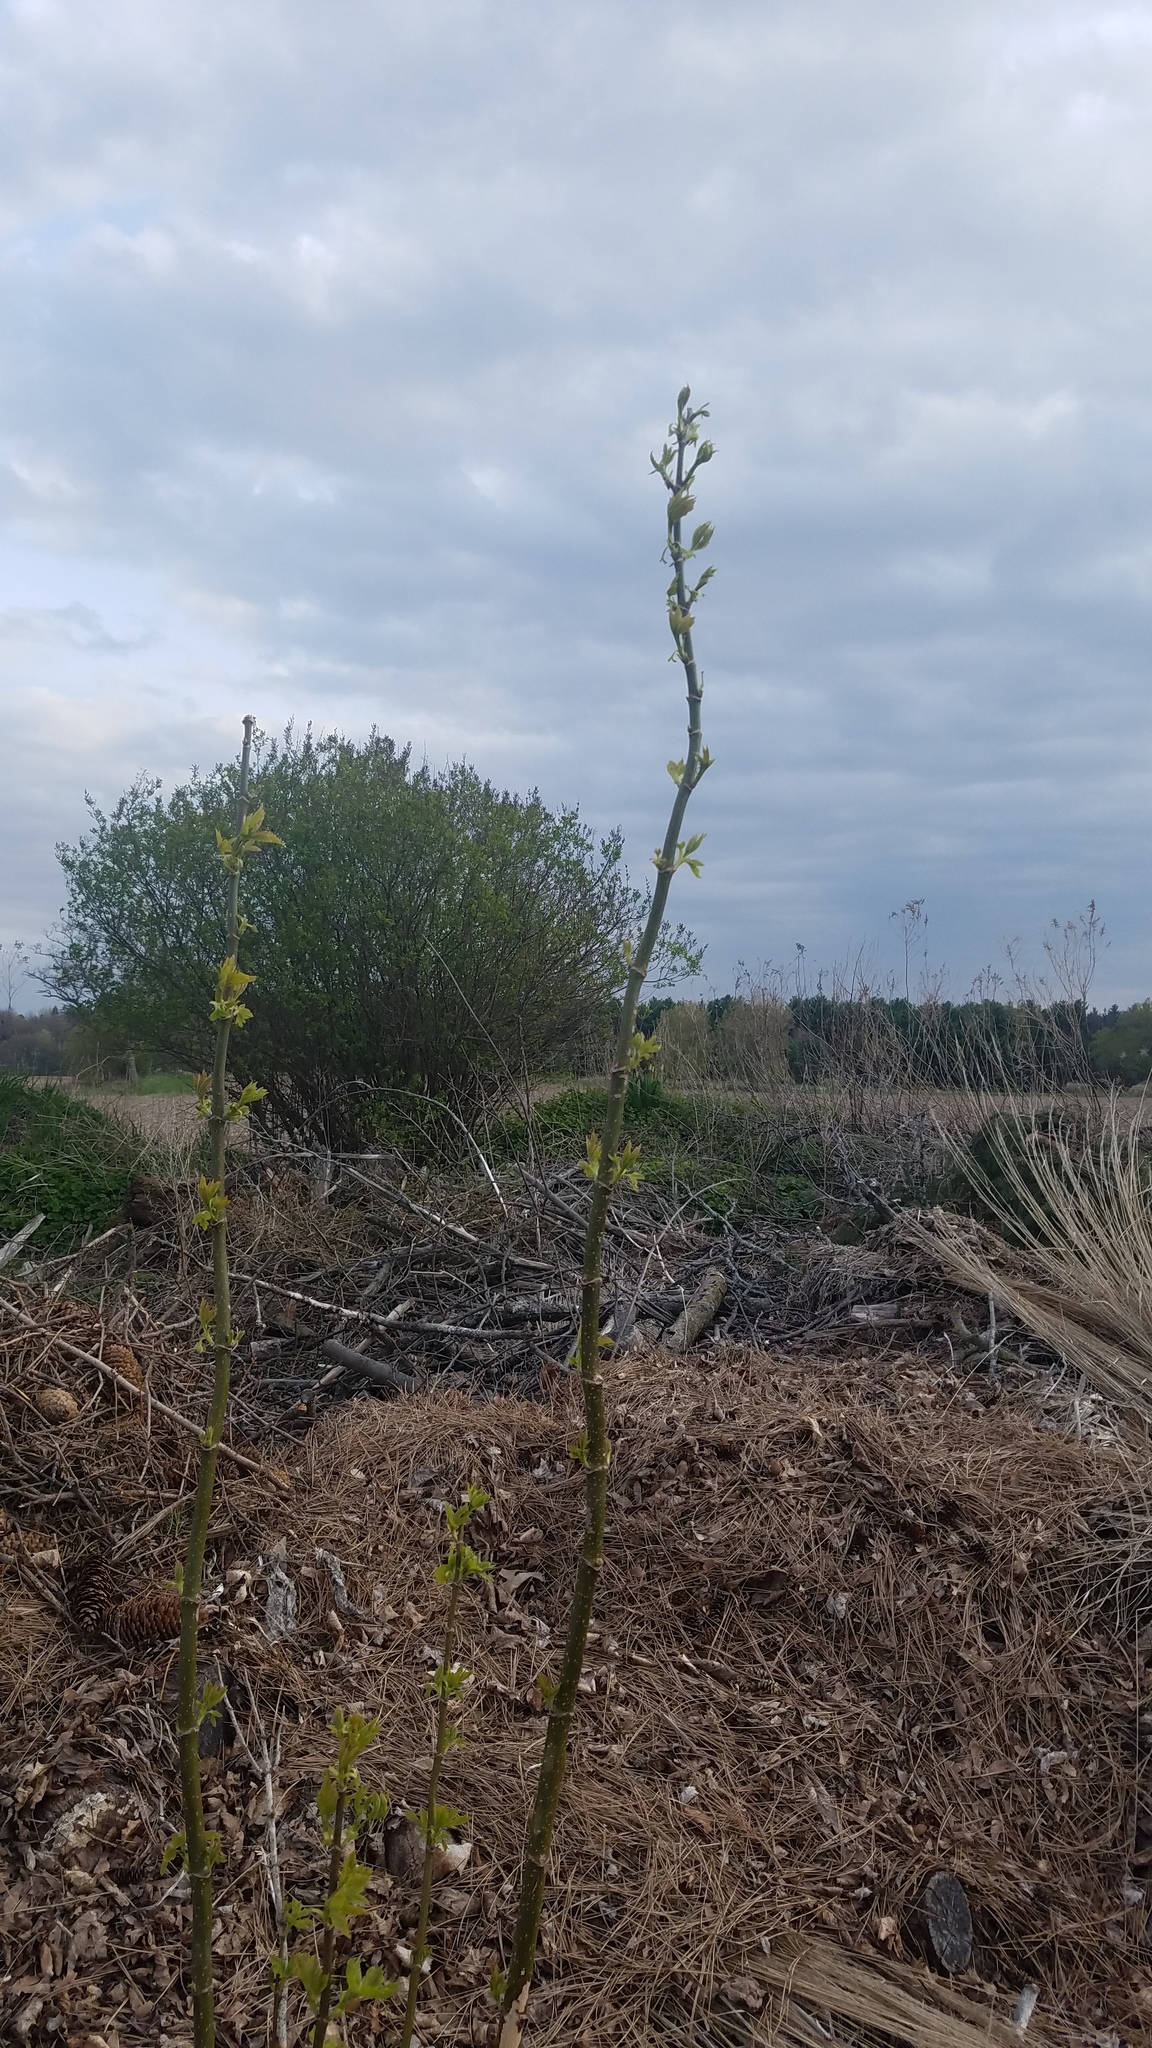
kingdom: Plantae
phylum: Tracheophyta
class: Magnoliopsida
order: Sapindales
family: Sapindaceae
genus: Acer
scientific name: Acer negundo
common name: Ashleaf maple
